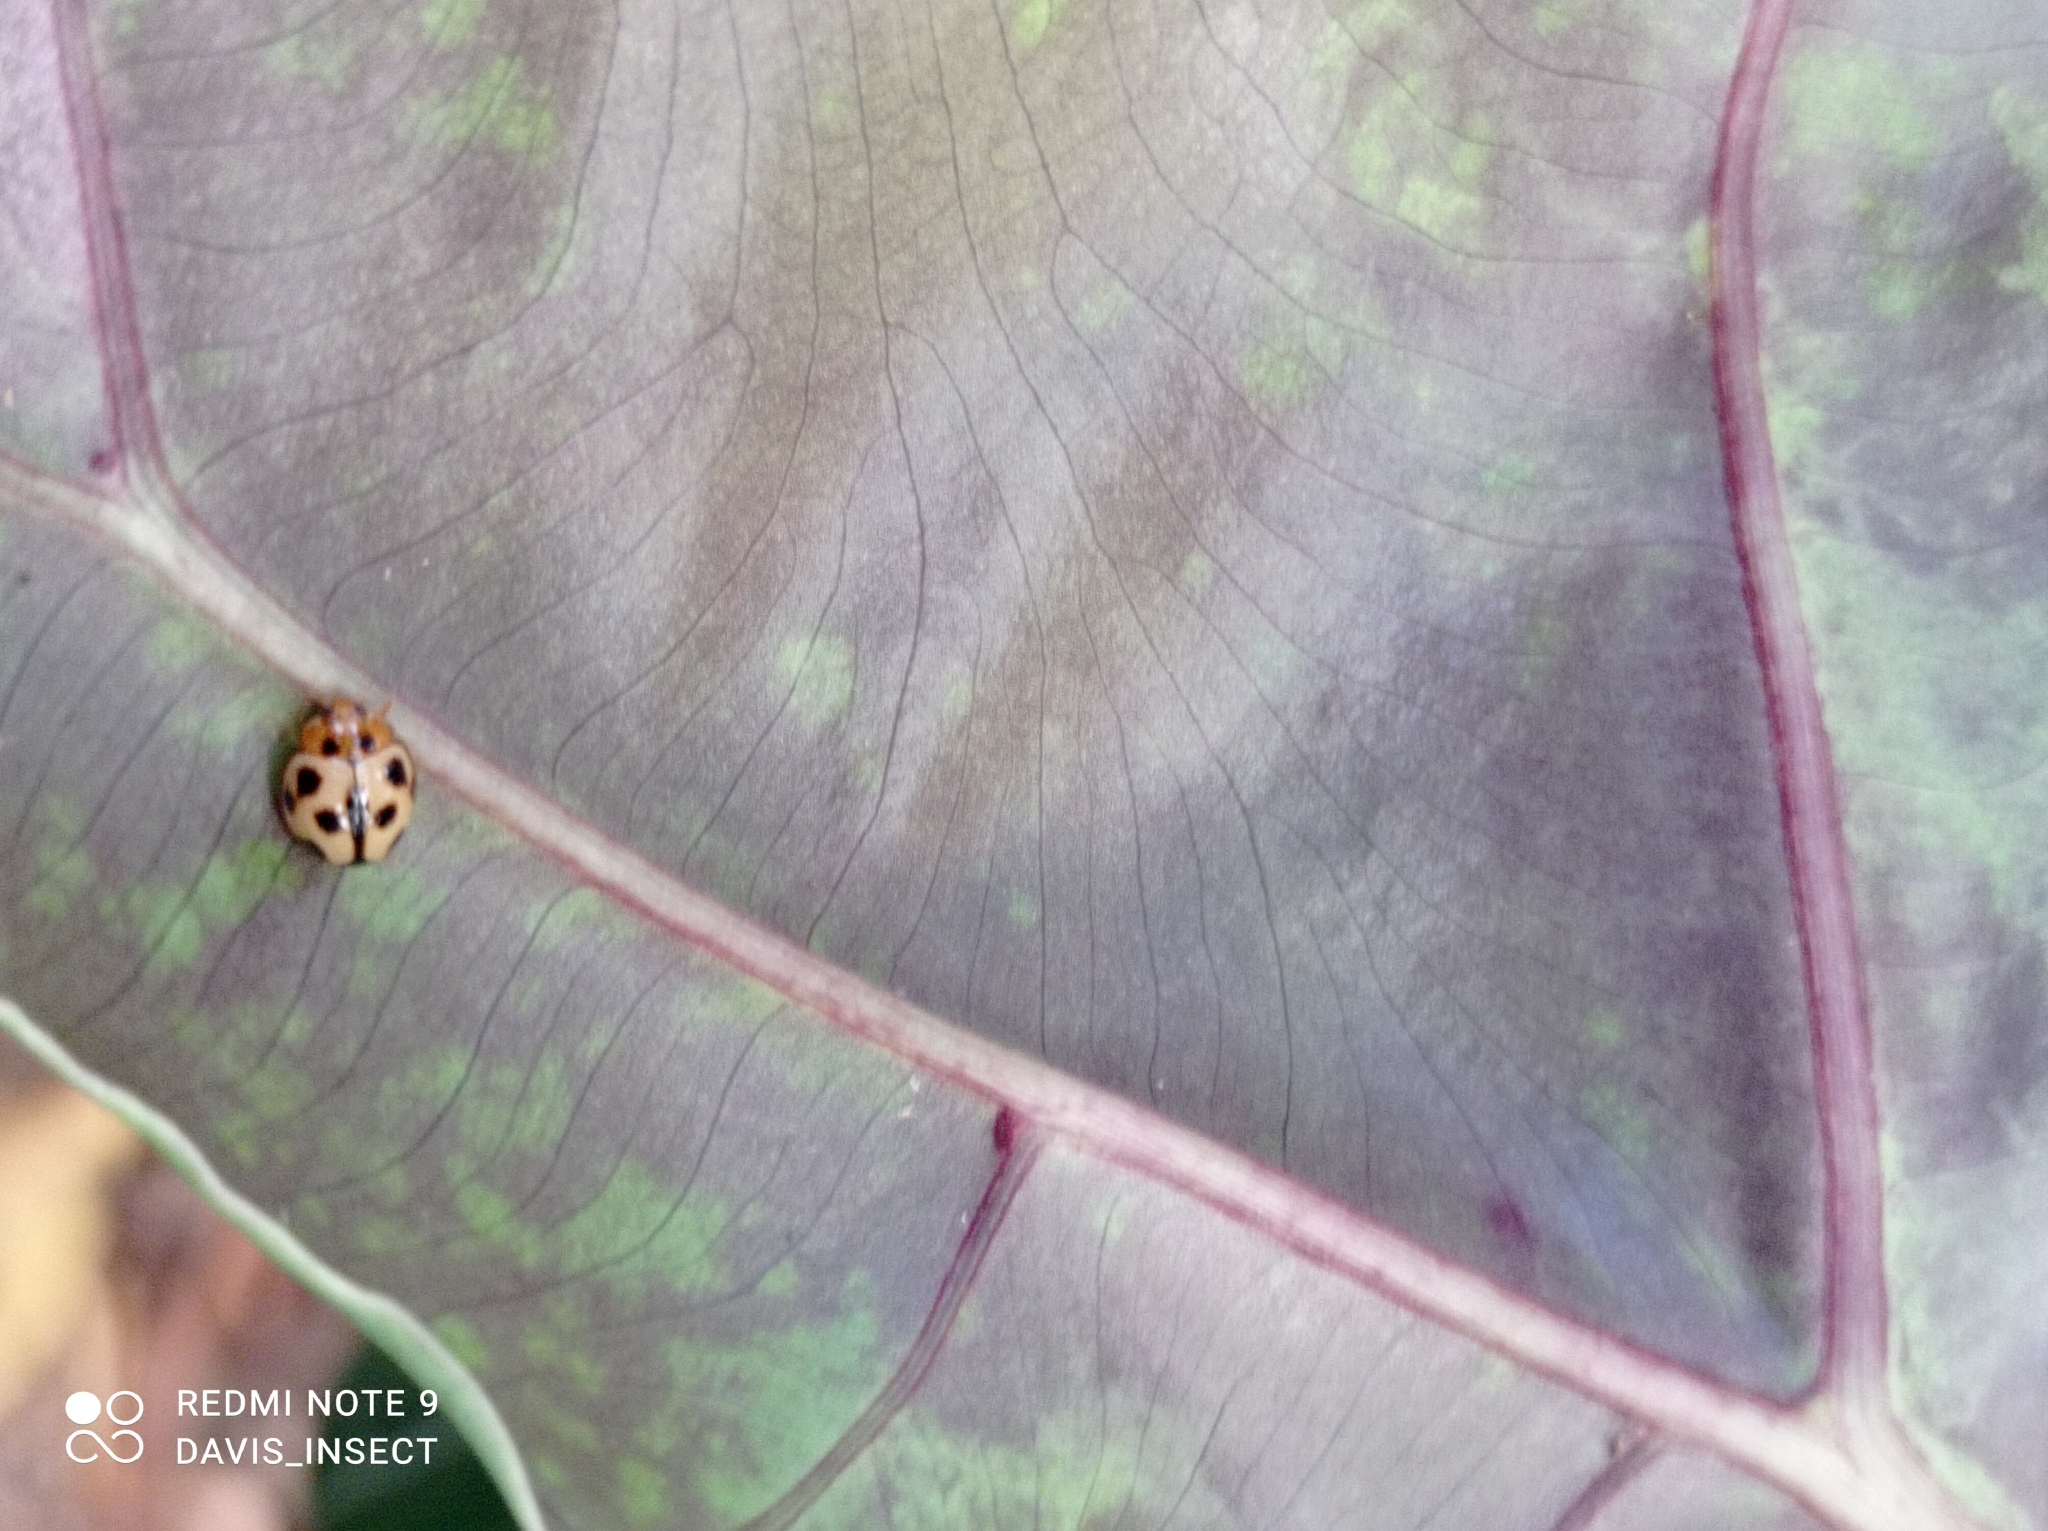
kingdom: Animalia
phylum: Arthropoda
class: Insecta
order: Coleoptera
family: Coccinellidae
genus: Coelophora
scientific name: Coelophora inaequalis
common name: Common australian lady beetle
